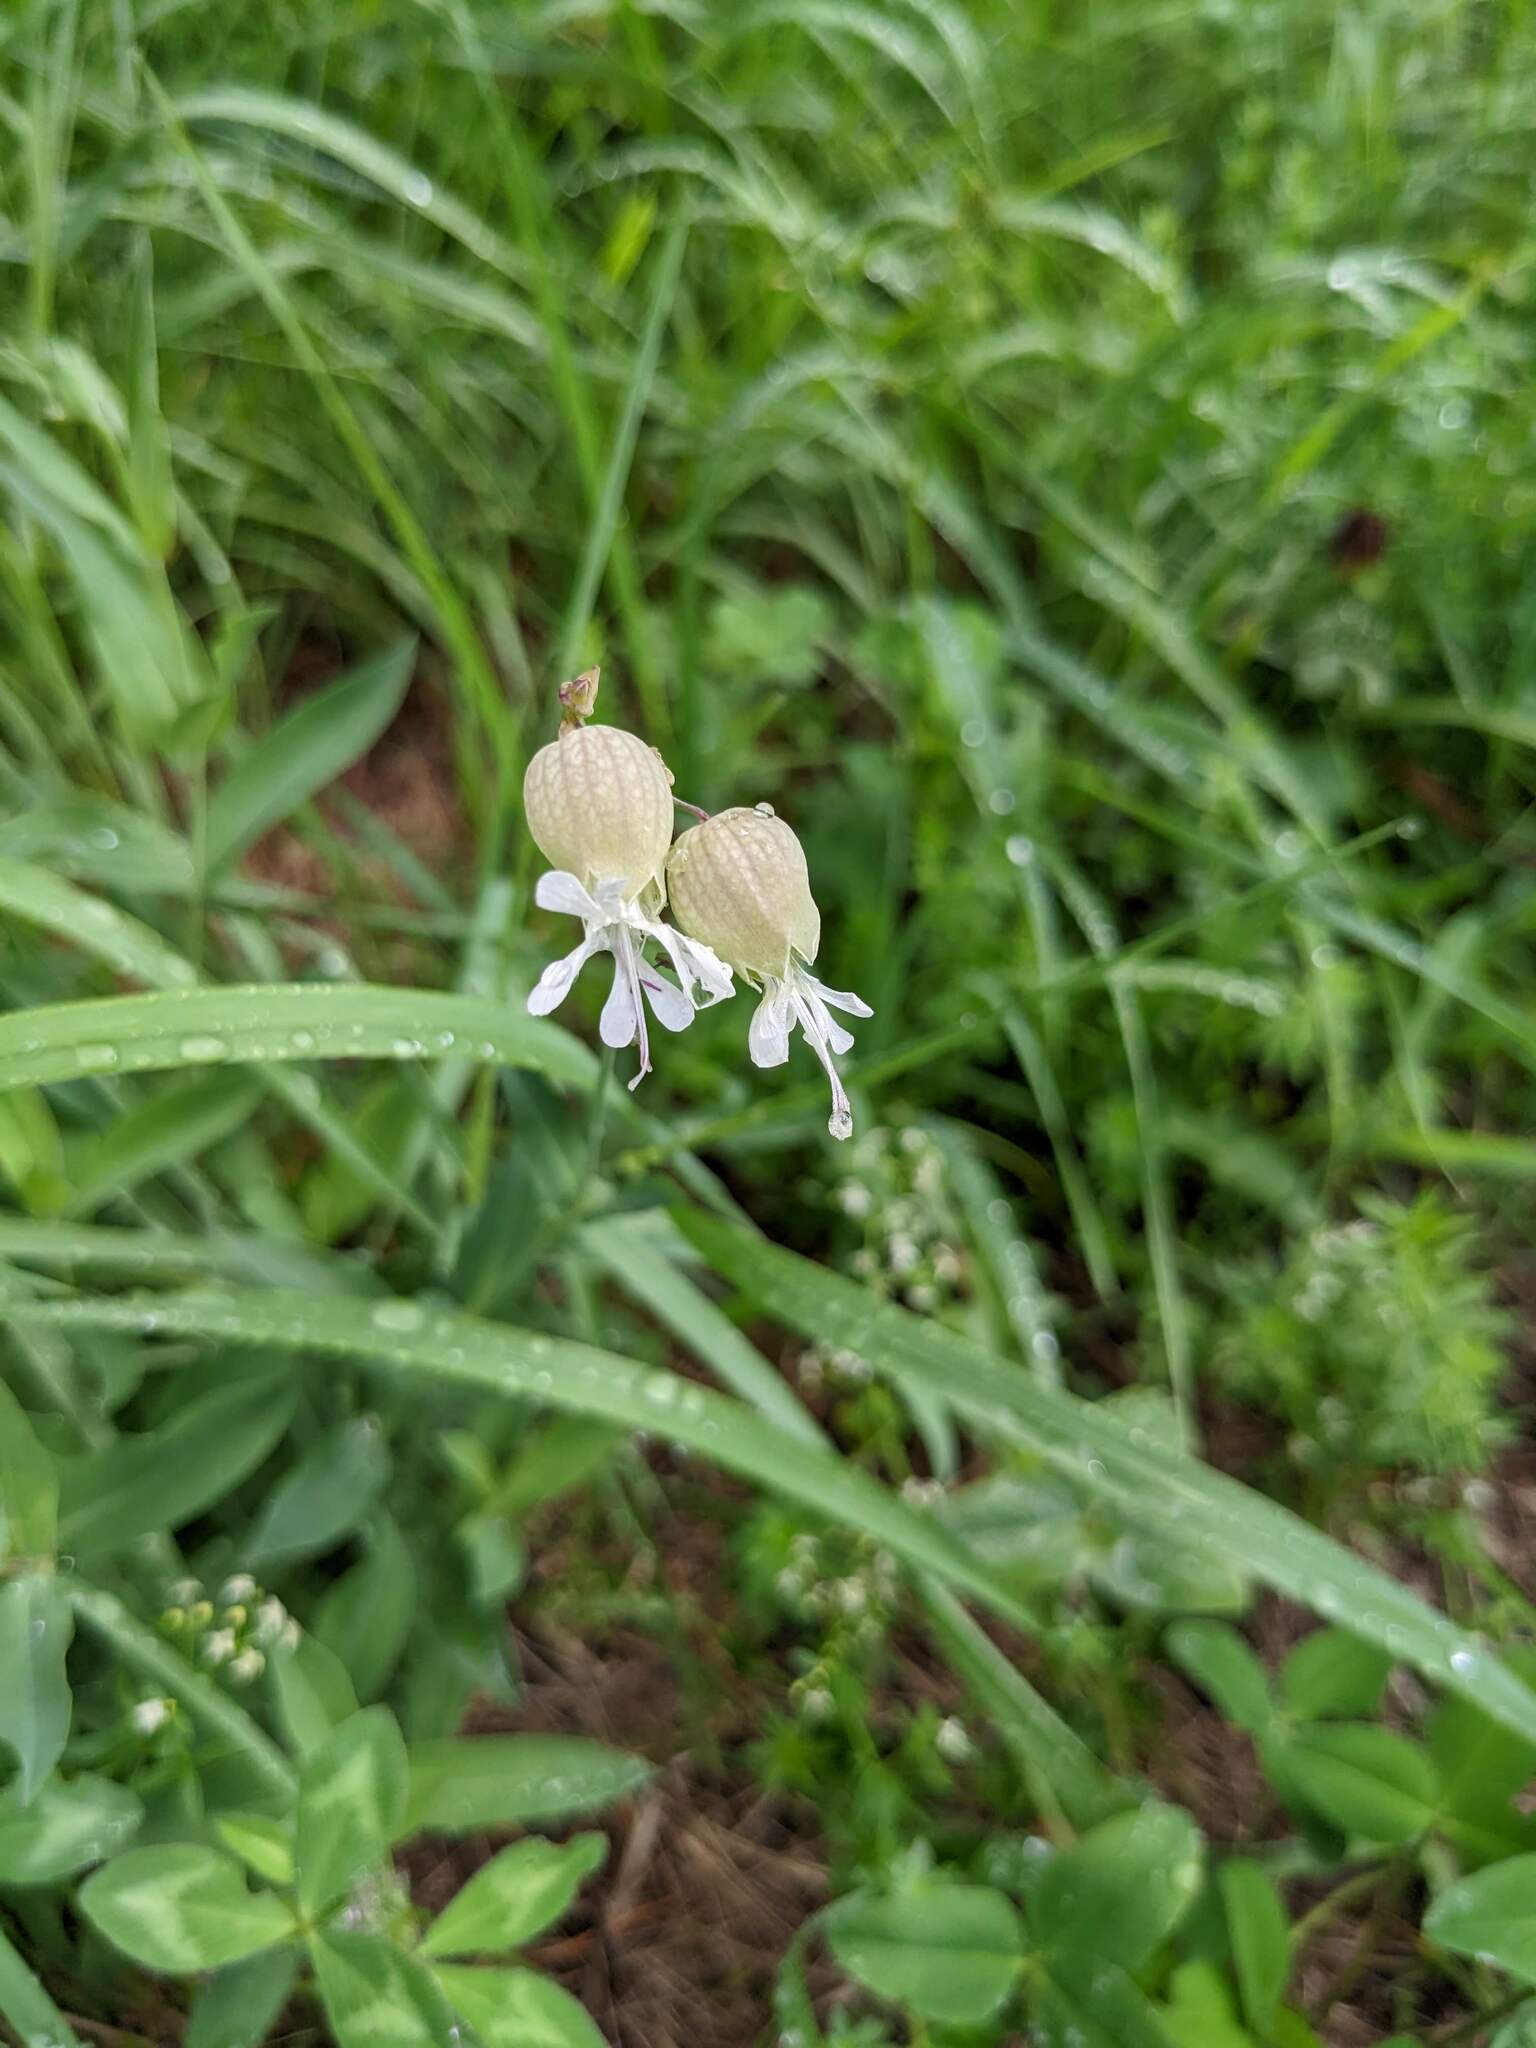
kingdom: Plantae
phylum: Tracheophyta
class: Magnoliopsida
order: Caryophyllales
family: Caryophyllaceae
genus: Silene
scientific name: Silene vulgaris
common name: Bladder campion
